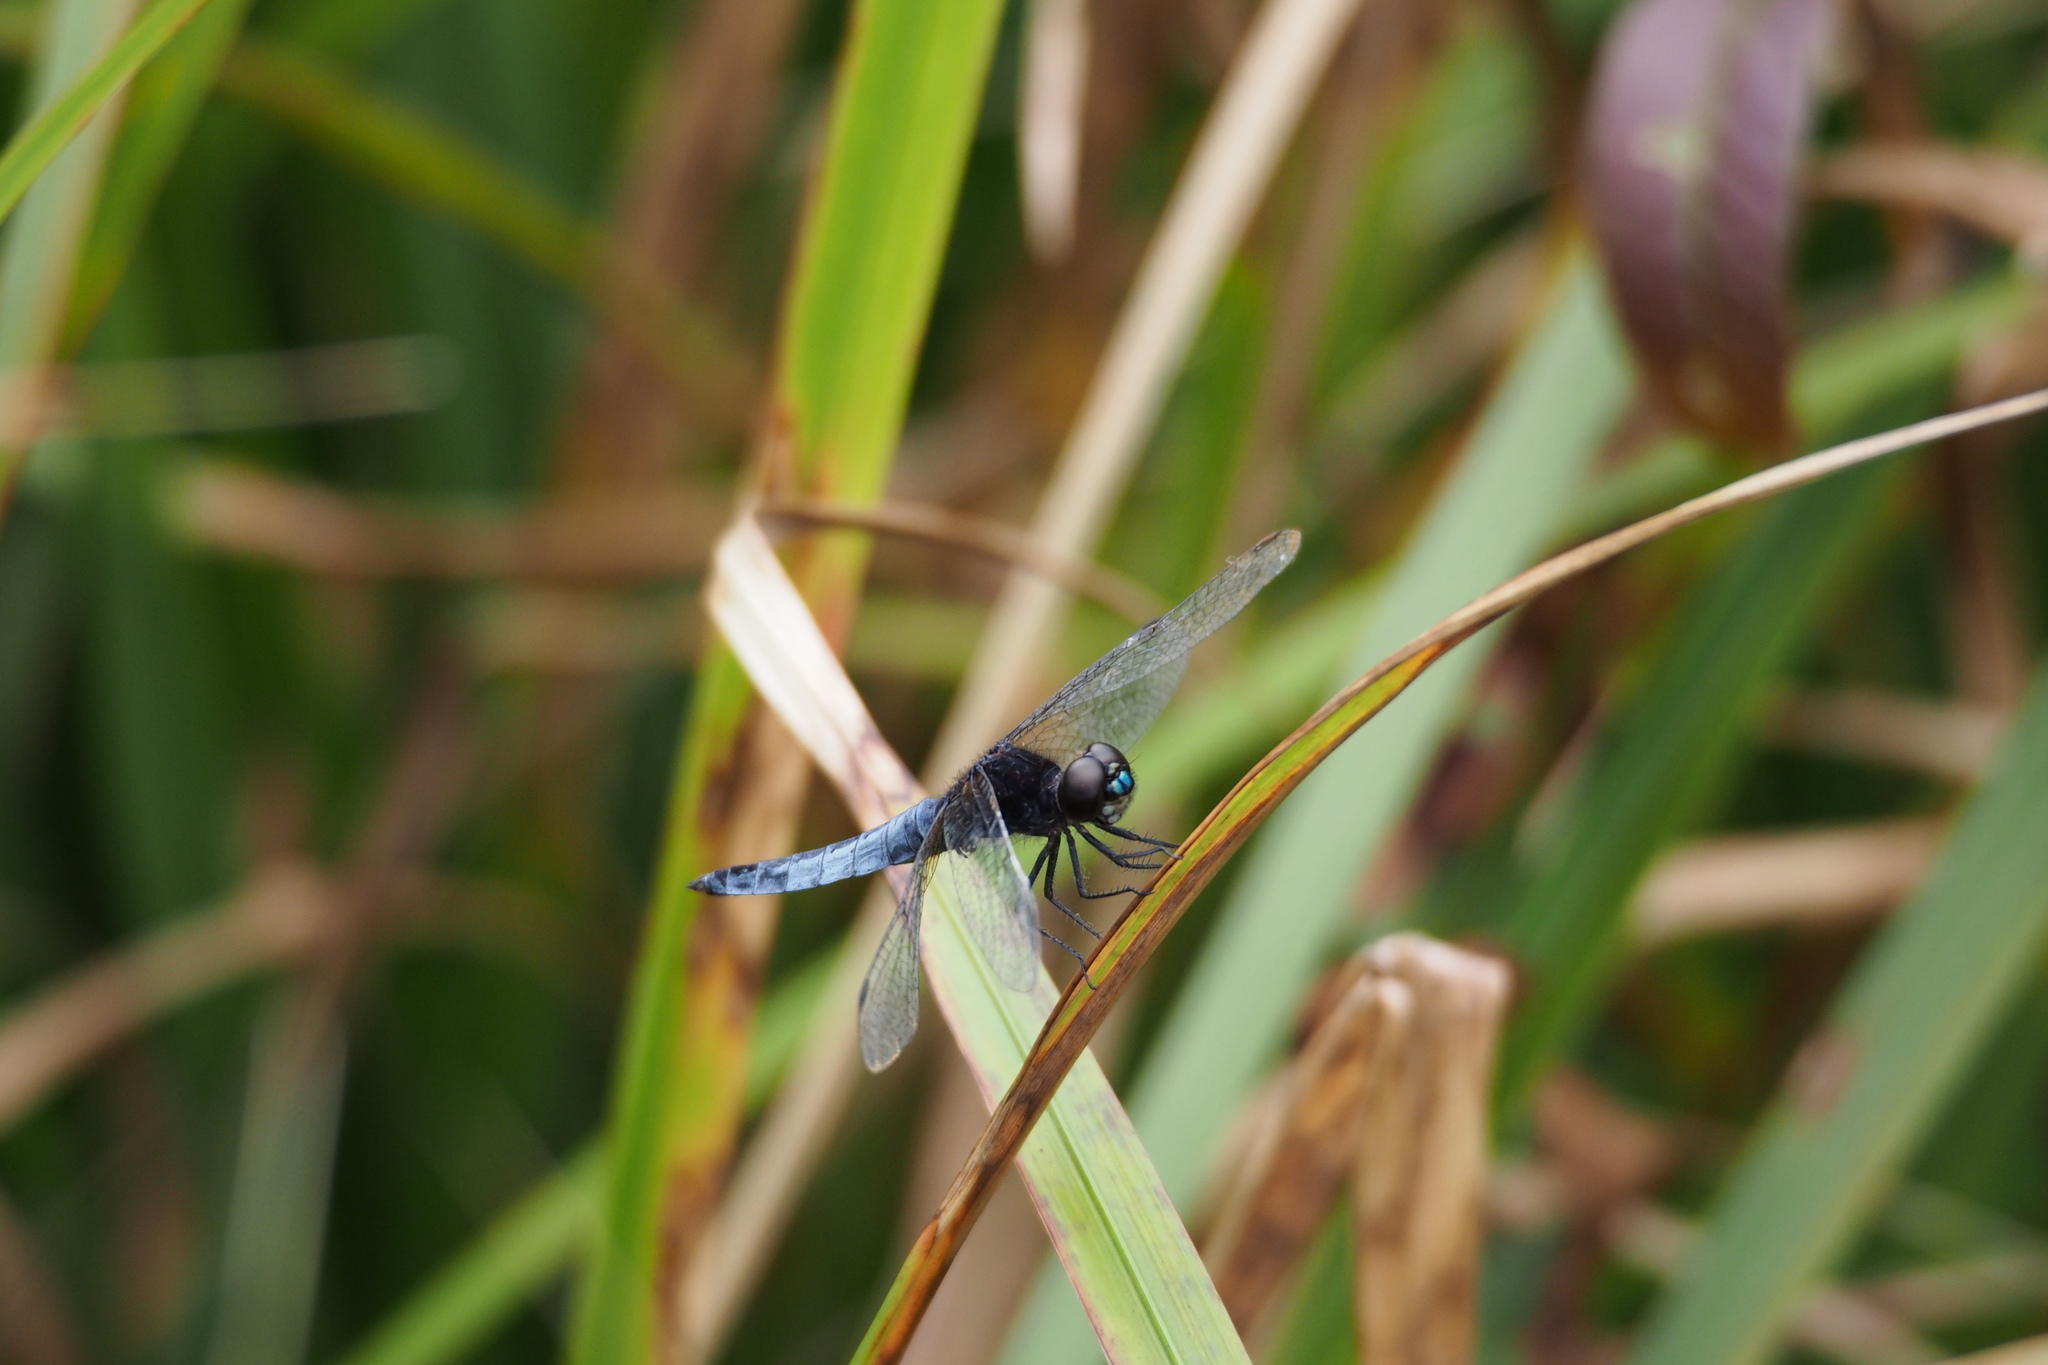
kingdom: Animalia
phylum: Arthropoda
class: Insecta
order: Odonata
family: Libellulidae
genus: Lyriothemis
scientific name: Lyriothemis pachygastra
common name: Wide-bellied skimmer
